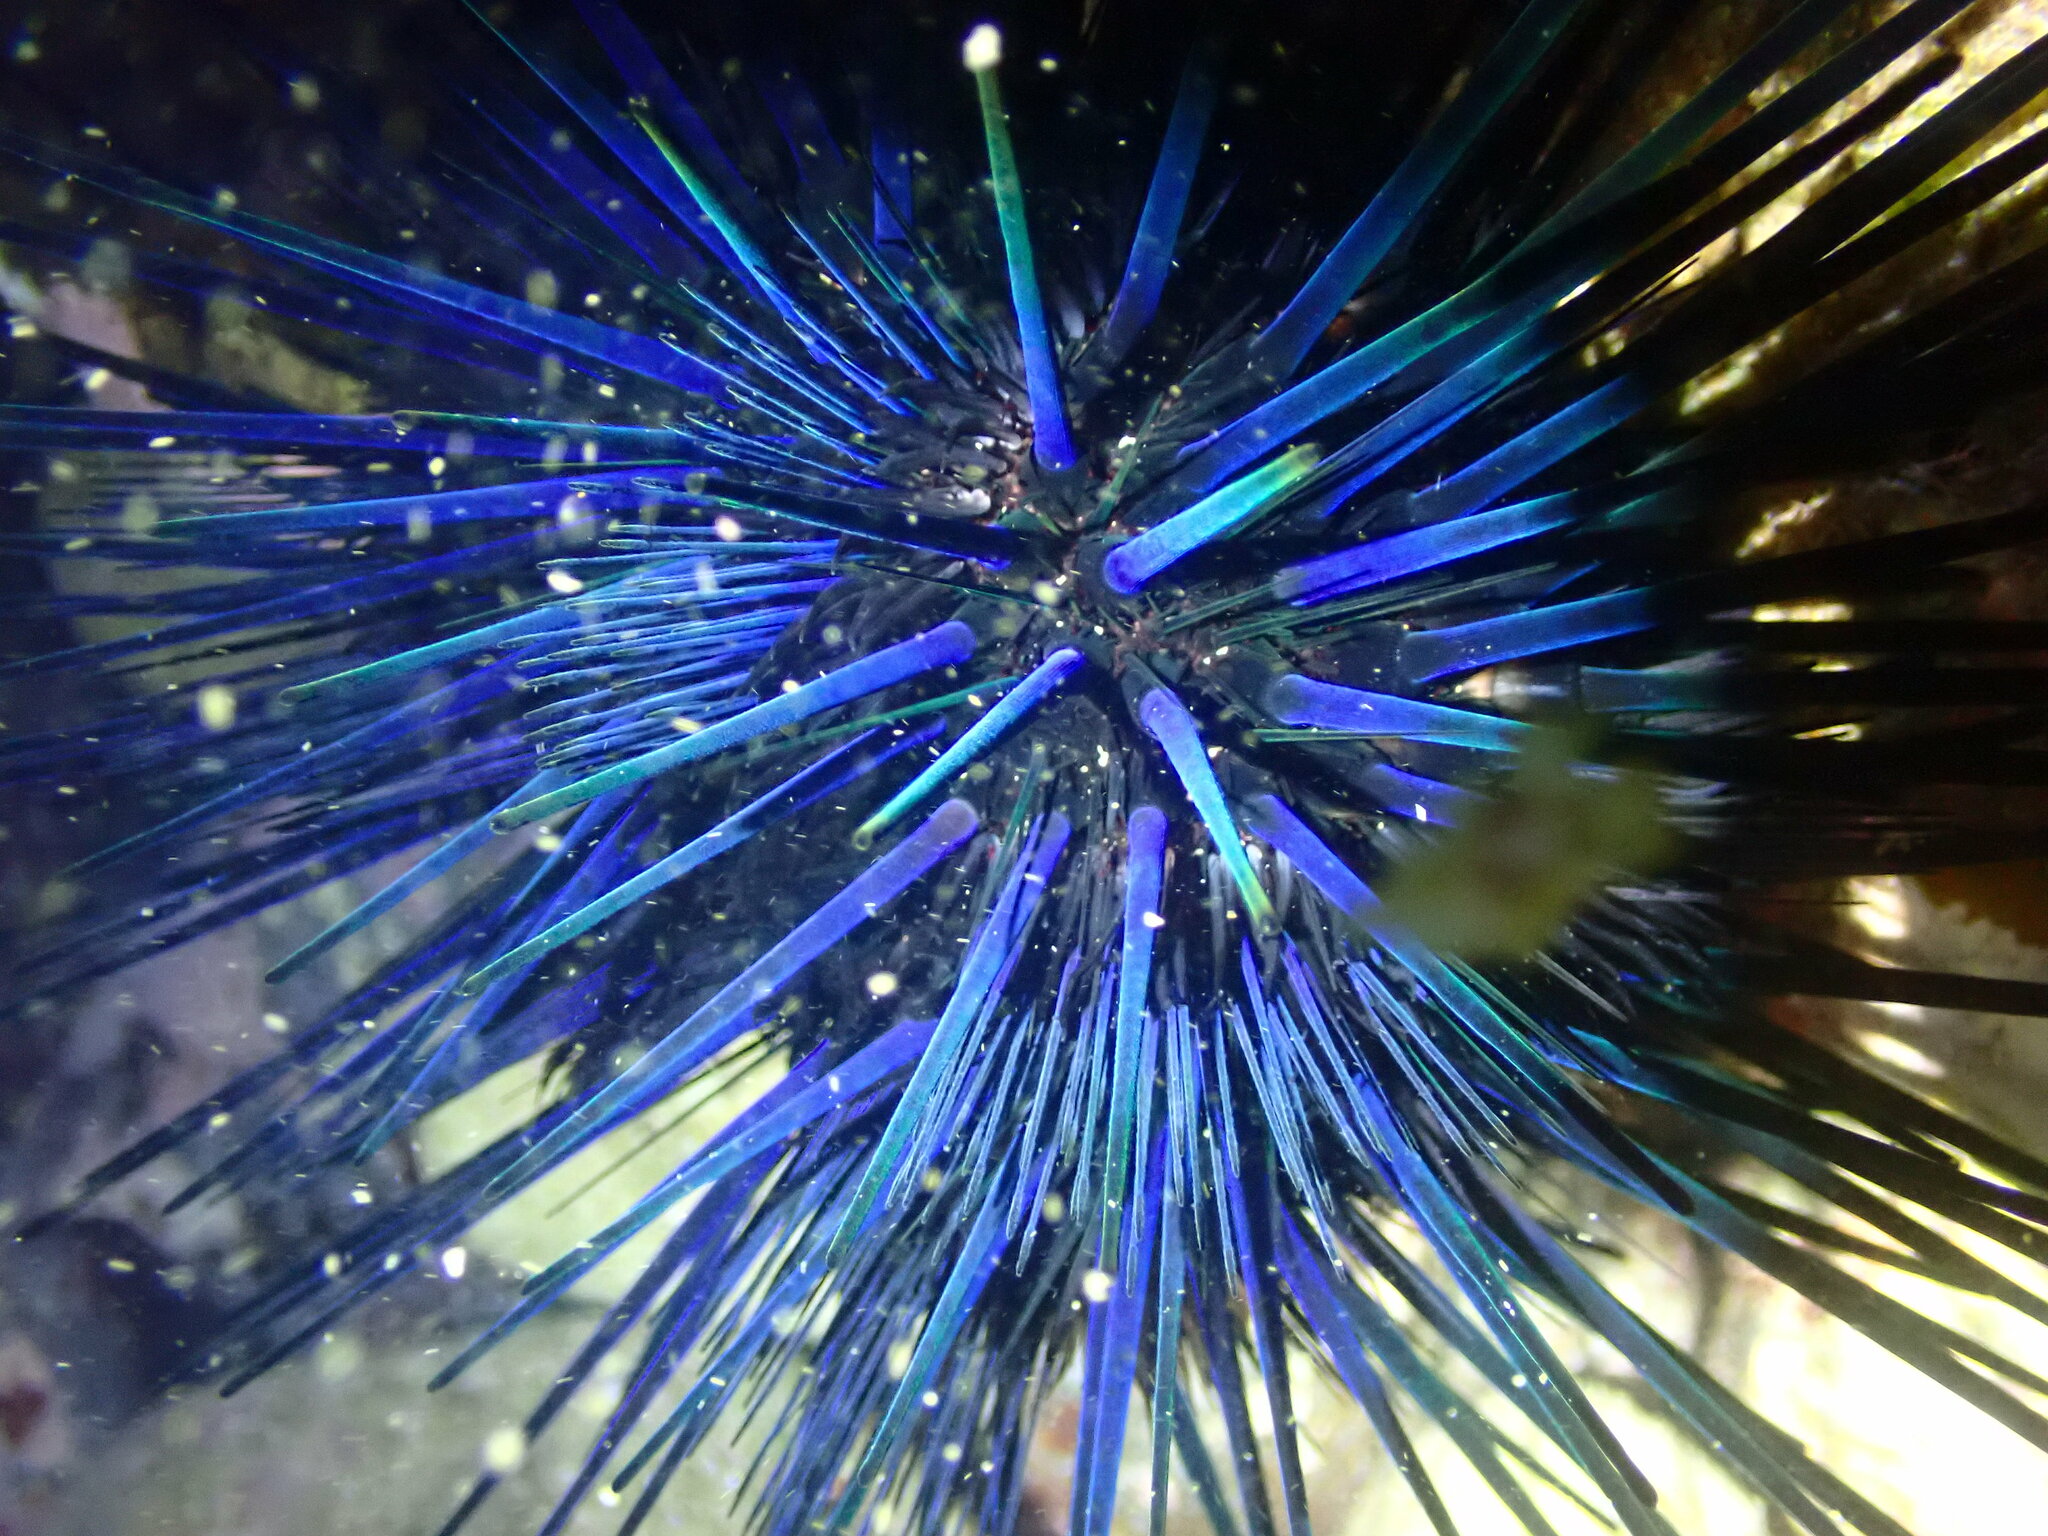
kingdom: Animalia
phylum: Echinodermata
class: Echinoidea
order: Diadematoida
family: Diadematidae
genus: Echinothrix
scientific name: Echinothrix diadema
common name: Schwarzer diademseeigel
